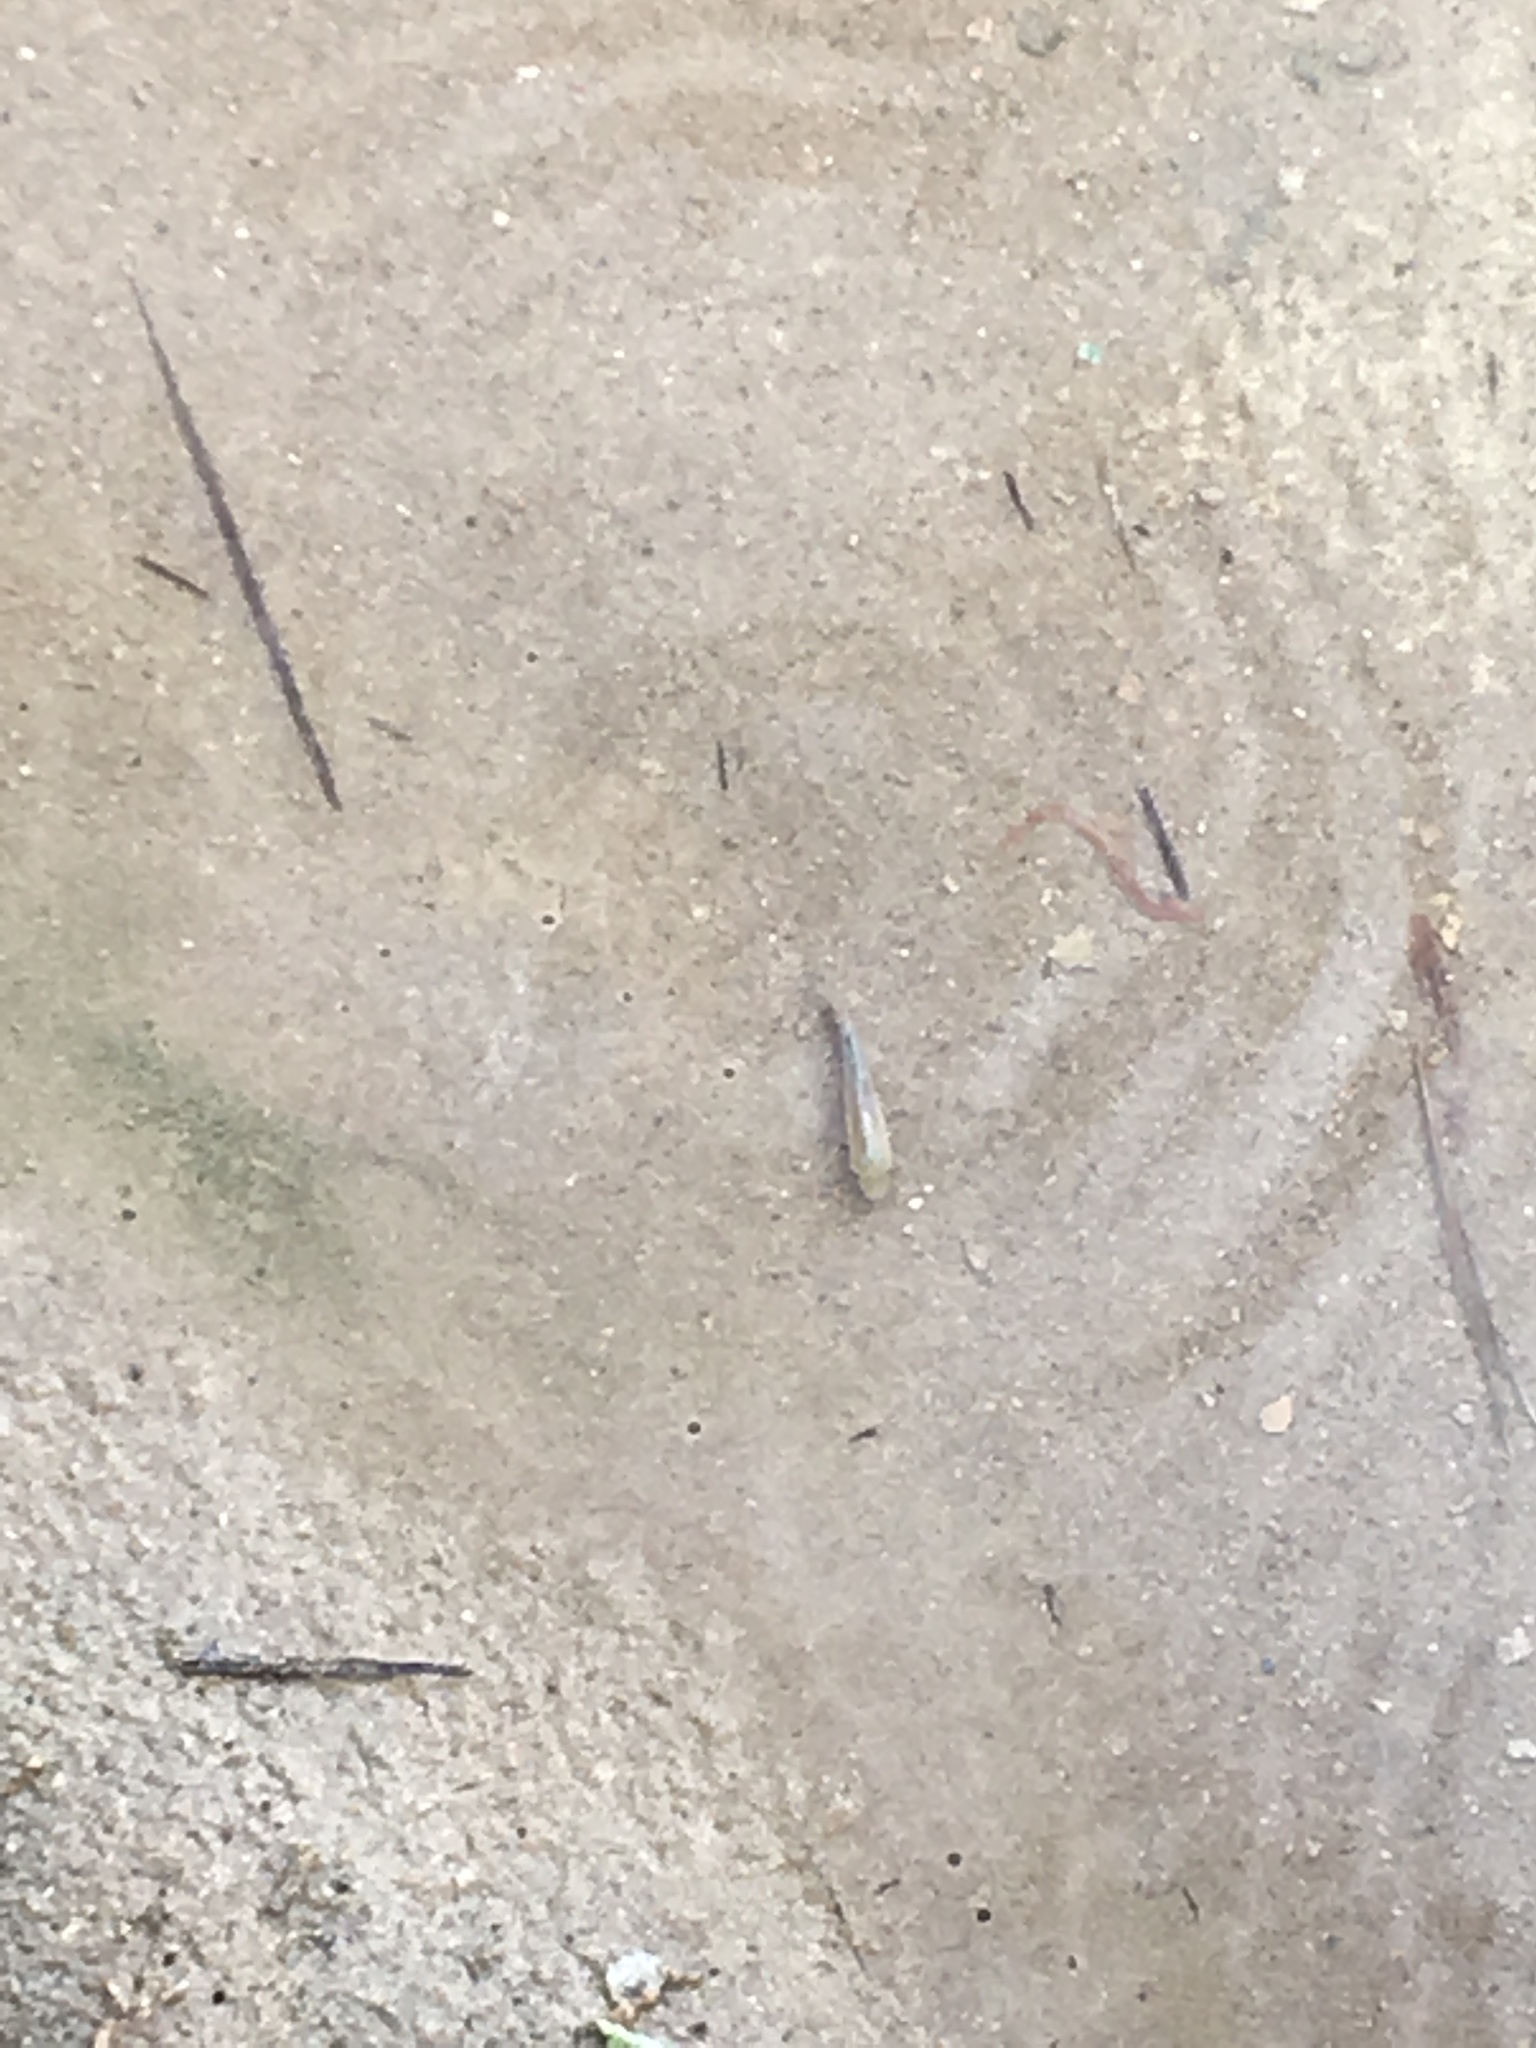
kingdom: Animalia
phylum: Chordata
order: Cyprinodontiformes
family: Cyprinodontidae
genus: Cyprinodon
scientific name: Cyprinodon salinus
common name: Cottonball marsh pupfish
